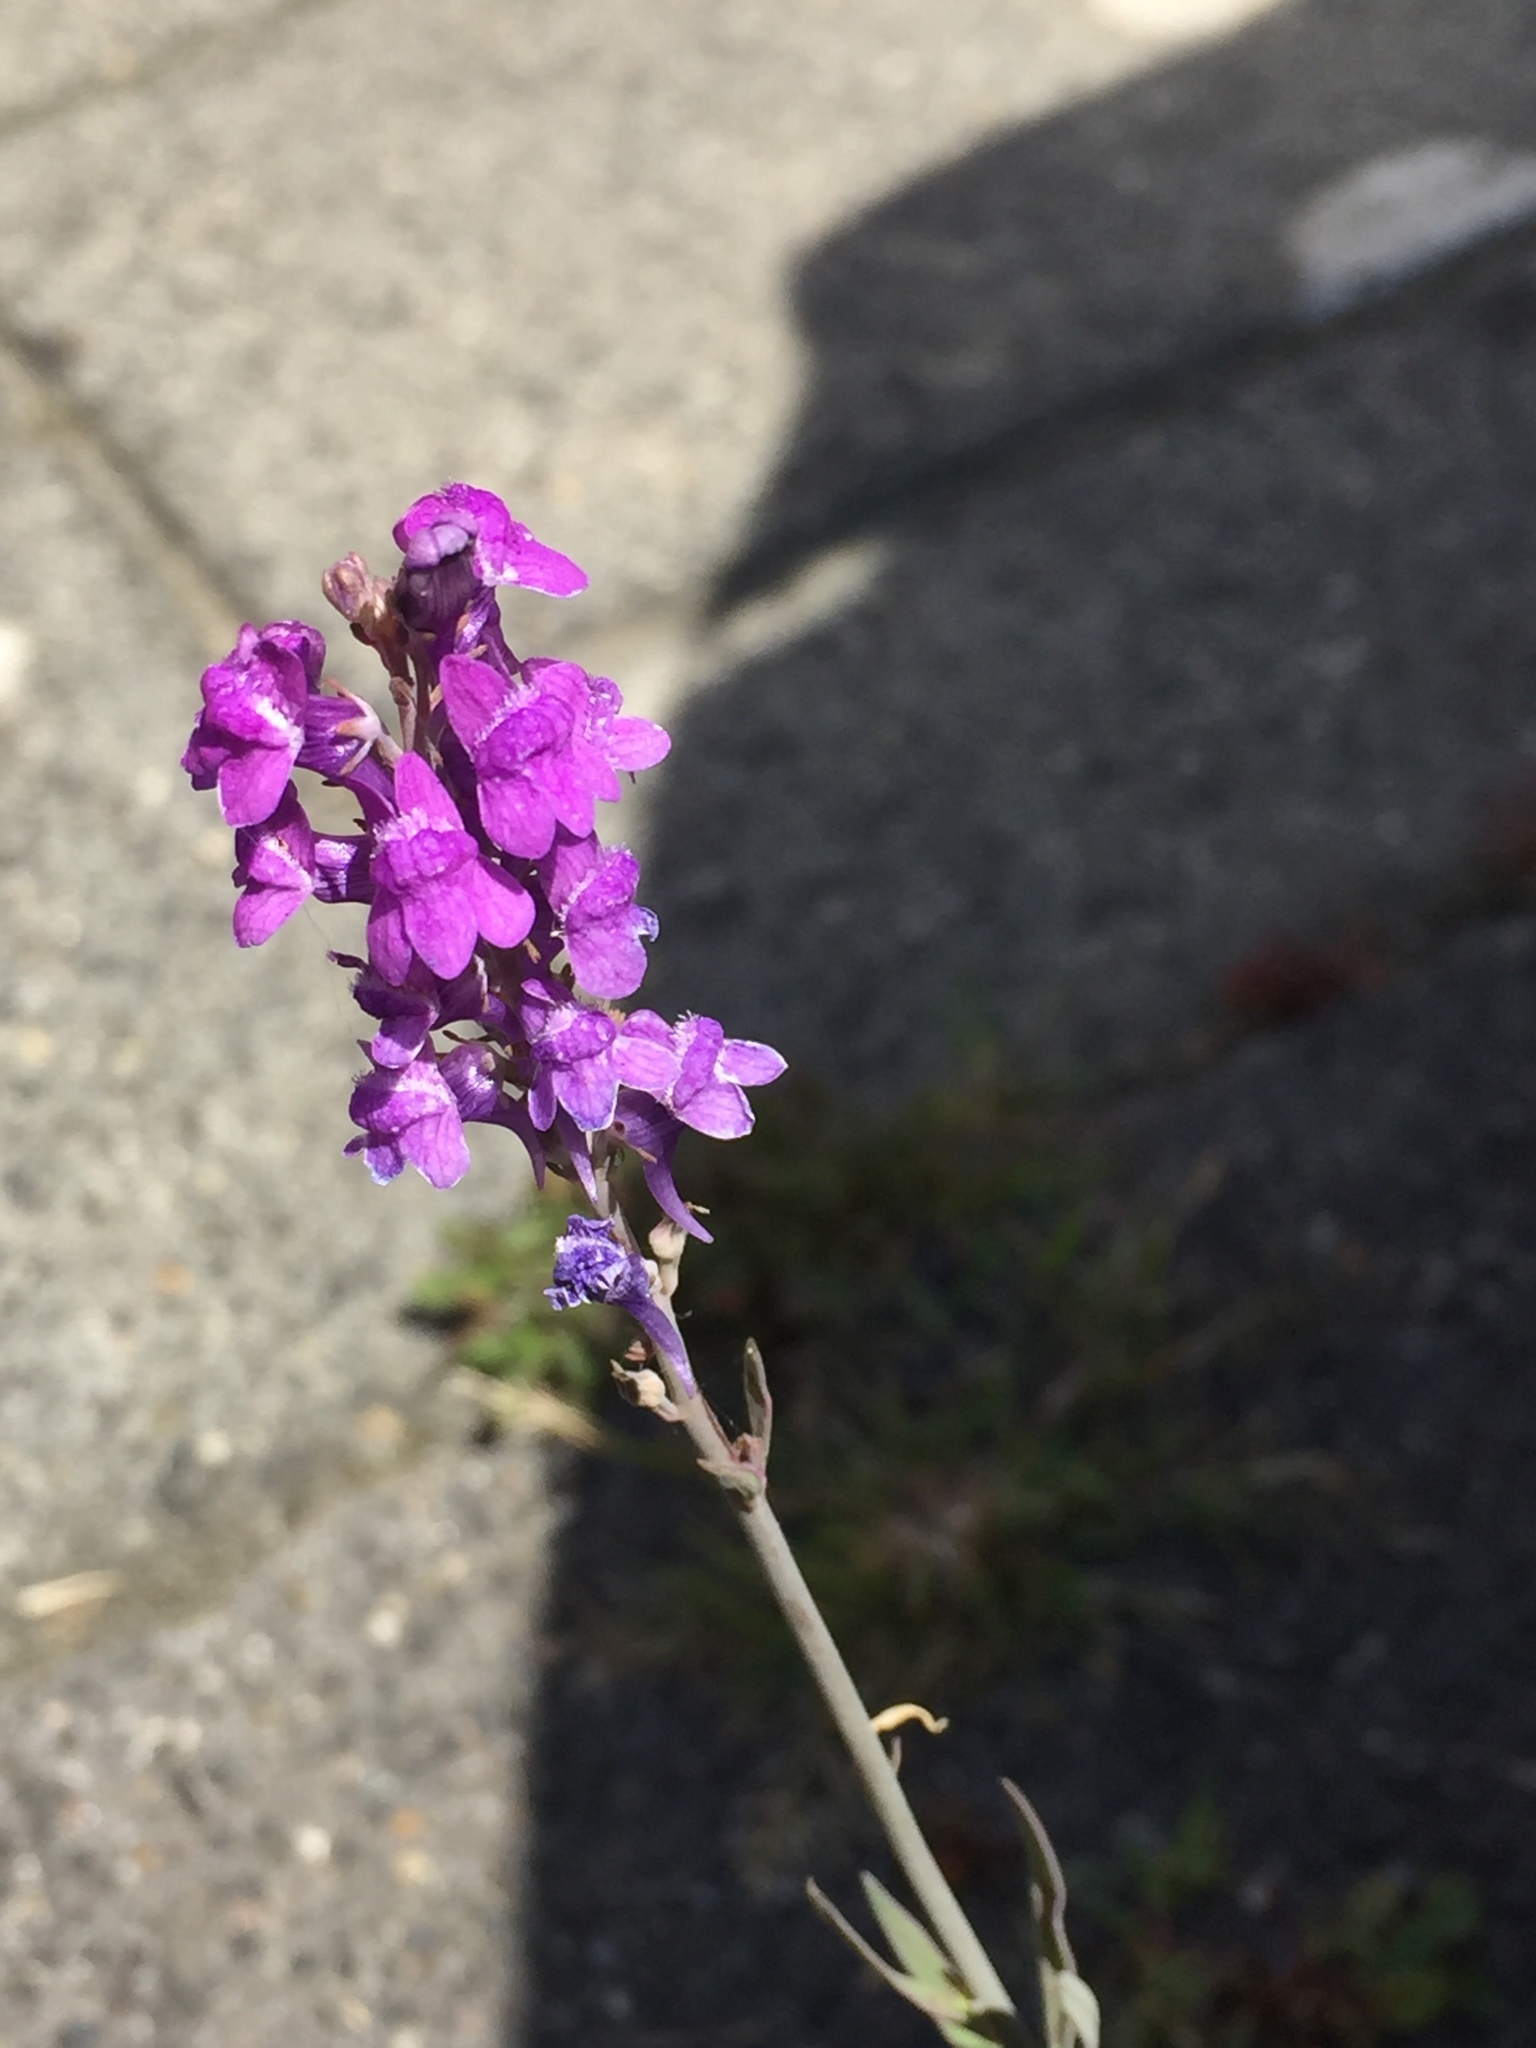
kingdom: Plantae
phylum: Tracheophyta
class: Magnoliopsida
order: Lamiales
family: Plantaginaceae
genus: Linaria
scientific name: Linaria purpurea
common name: Purple toadflax
